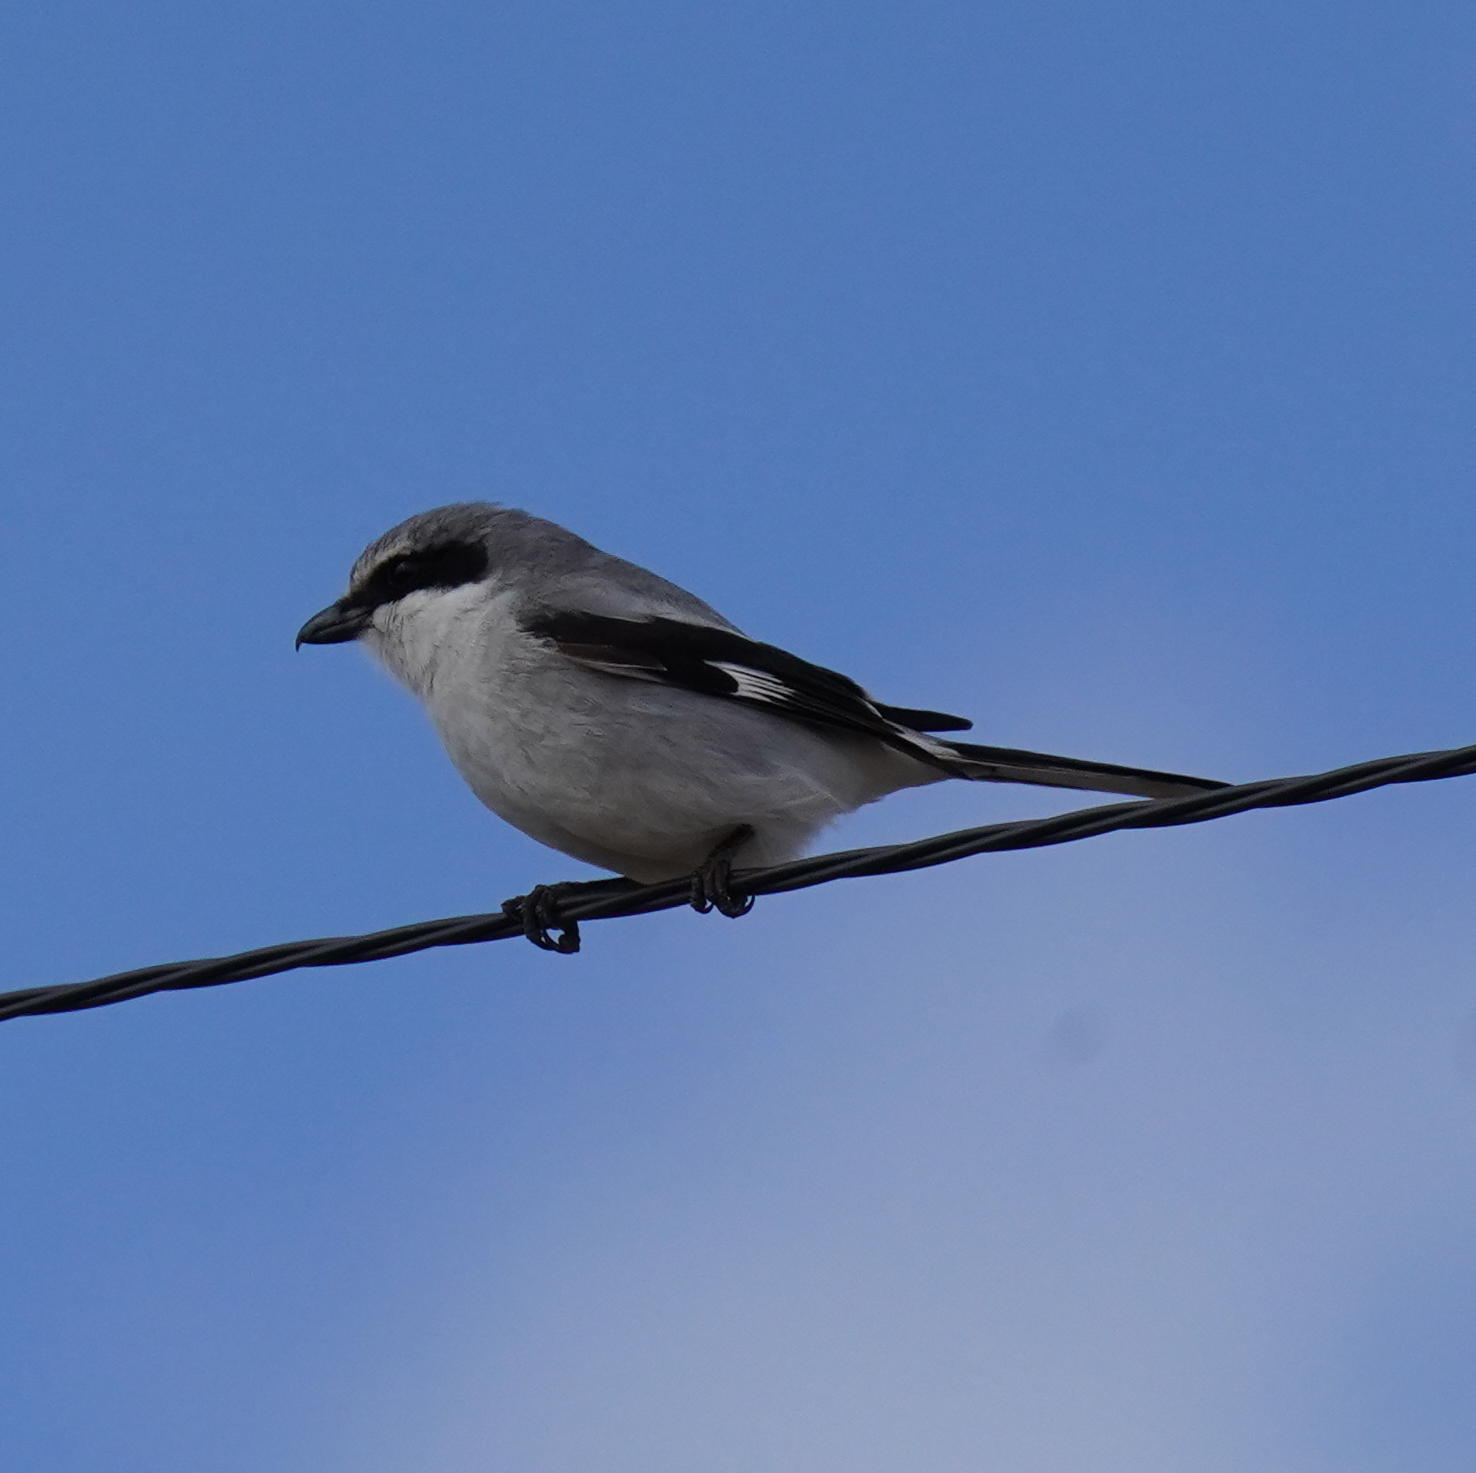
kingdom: Animalia
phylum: Chordata
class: Aves
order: Passeriformes
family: Laniidae
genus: Lanius
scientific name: Lanius ludovicianus
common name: Loggerhead shrike
